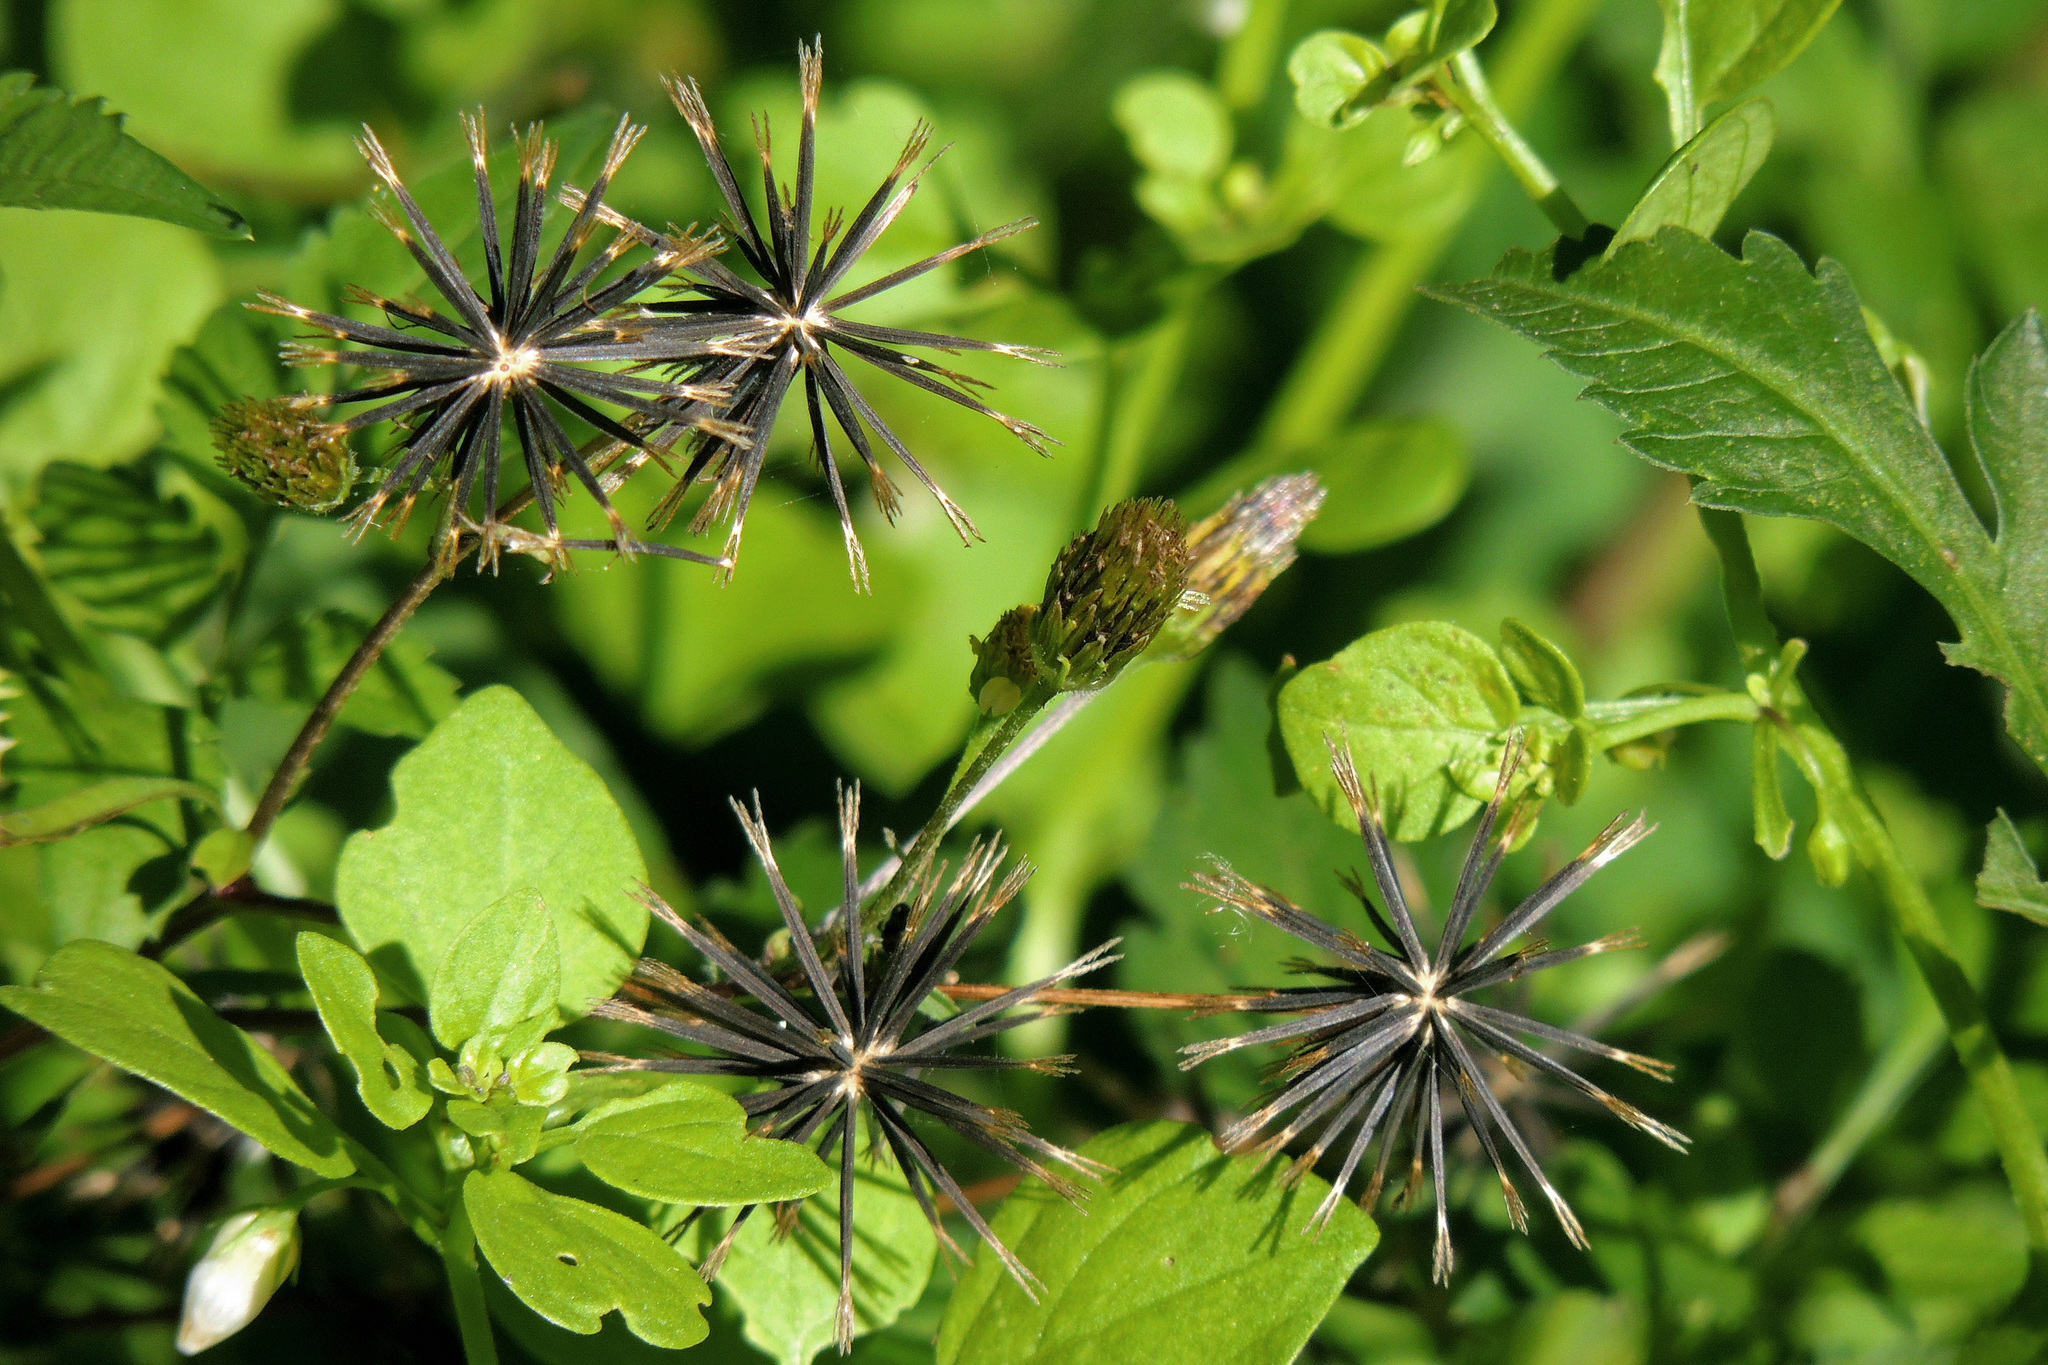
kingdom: Plantae
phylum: Tracheophyta
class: Magnoliopsida
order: Asterales
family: Asteraceae
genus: Bidens
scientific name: Bidens pilosa
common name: Black-jack
